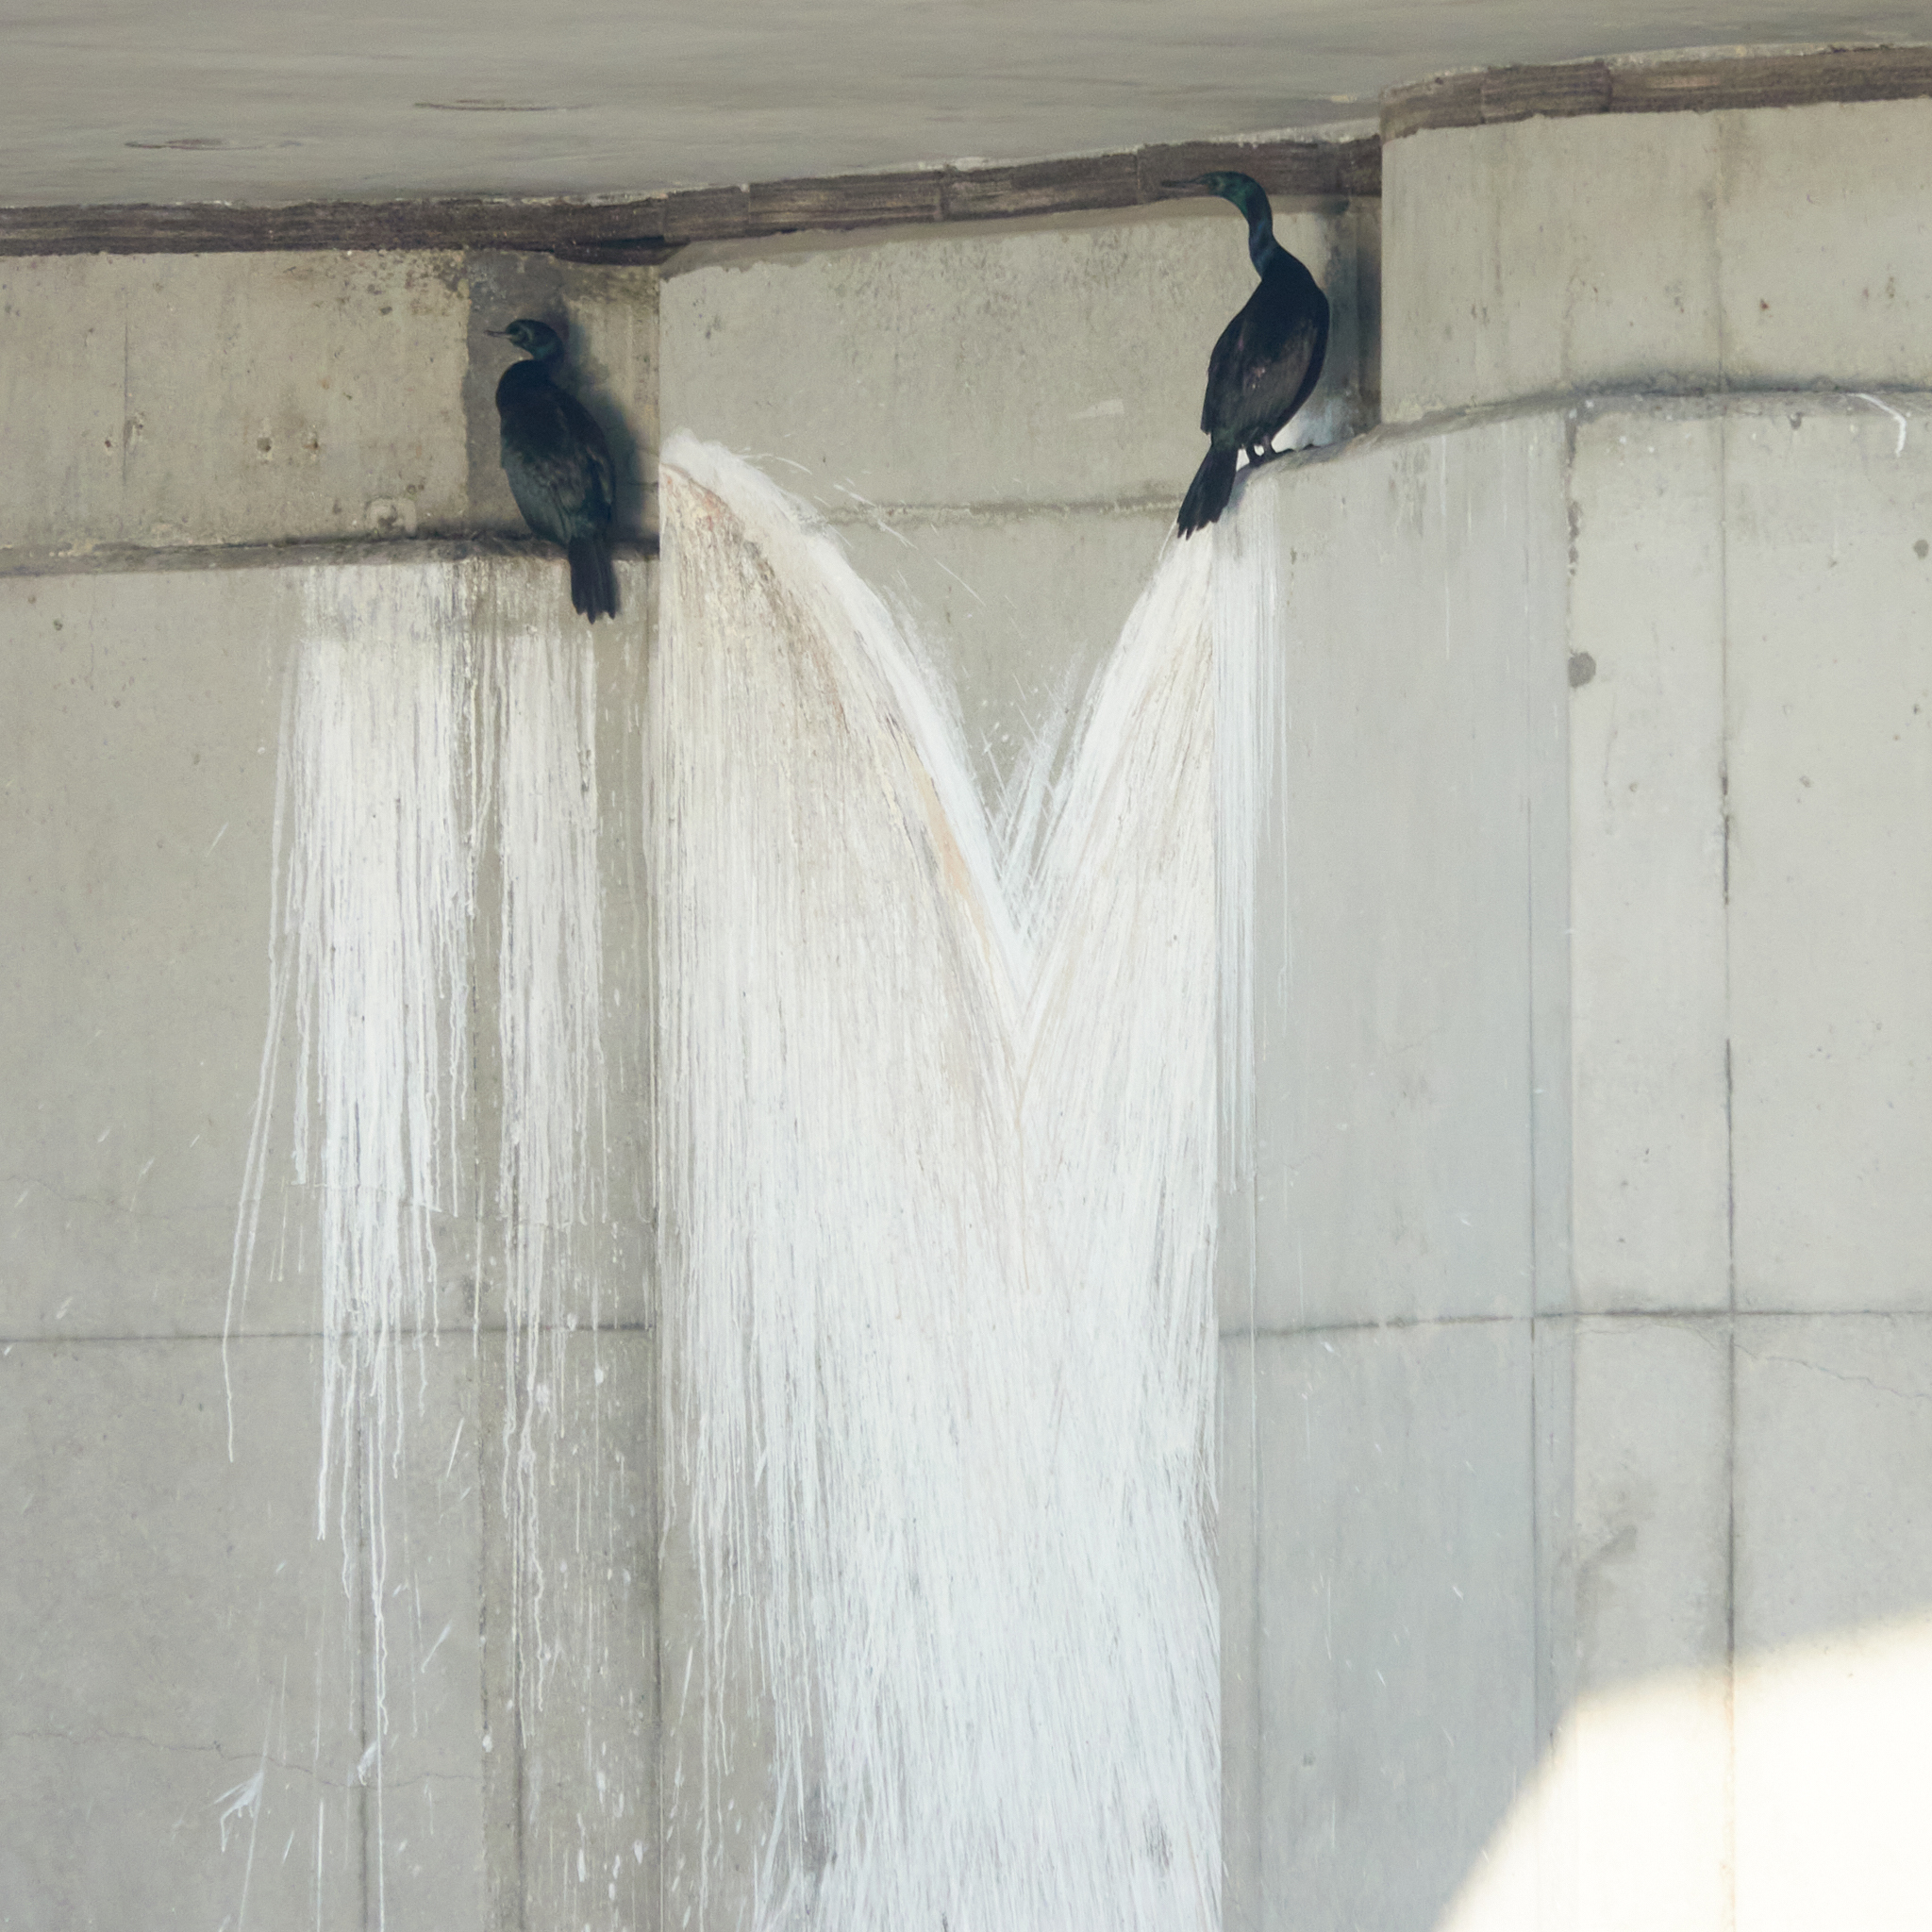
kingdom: Animalia
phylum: Chordata
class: Aves
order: Suliformes
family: Phalacrocoracidae
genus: Phalacrocorax
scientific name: Phalacrocorax pelagicus
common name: Pelagic cormorant
